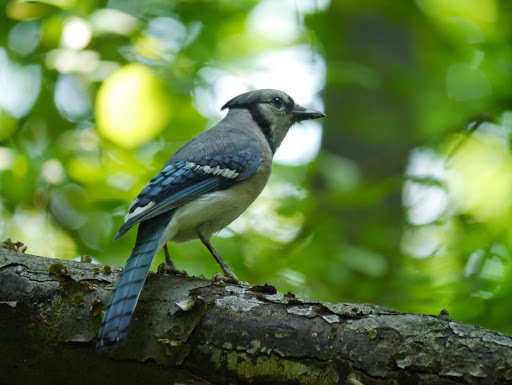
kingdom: Animalia
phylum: Chordata
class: Aves
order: Passeriformes
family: Corvidae
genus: Cyanocitta
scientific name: Cyanocitta cristata
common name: Blue jay
